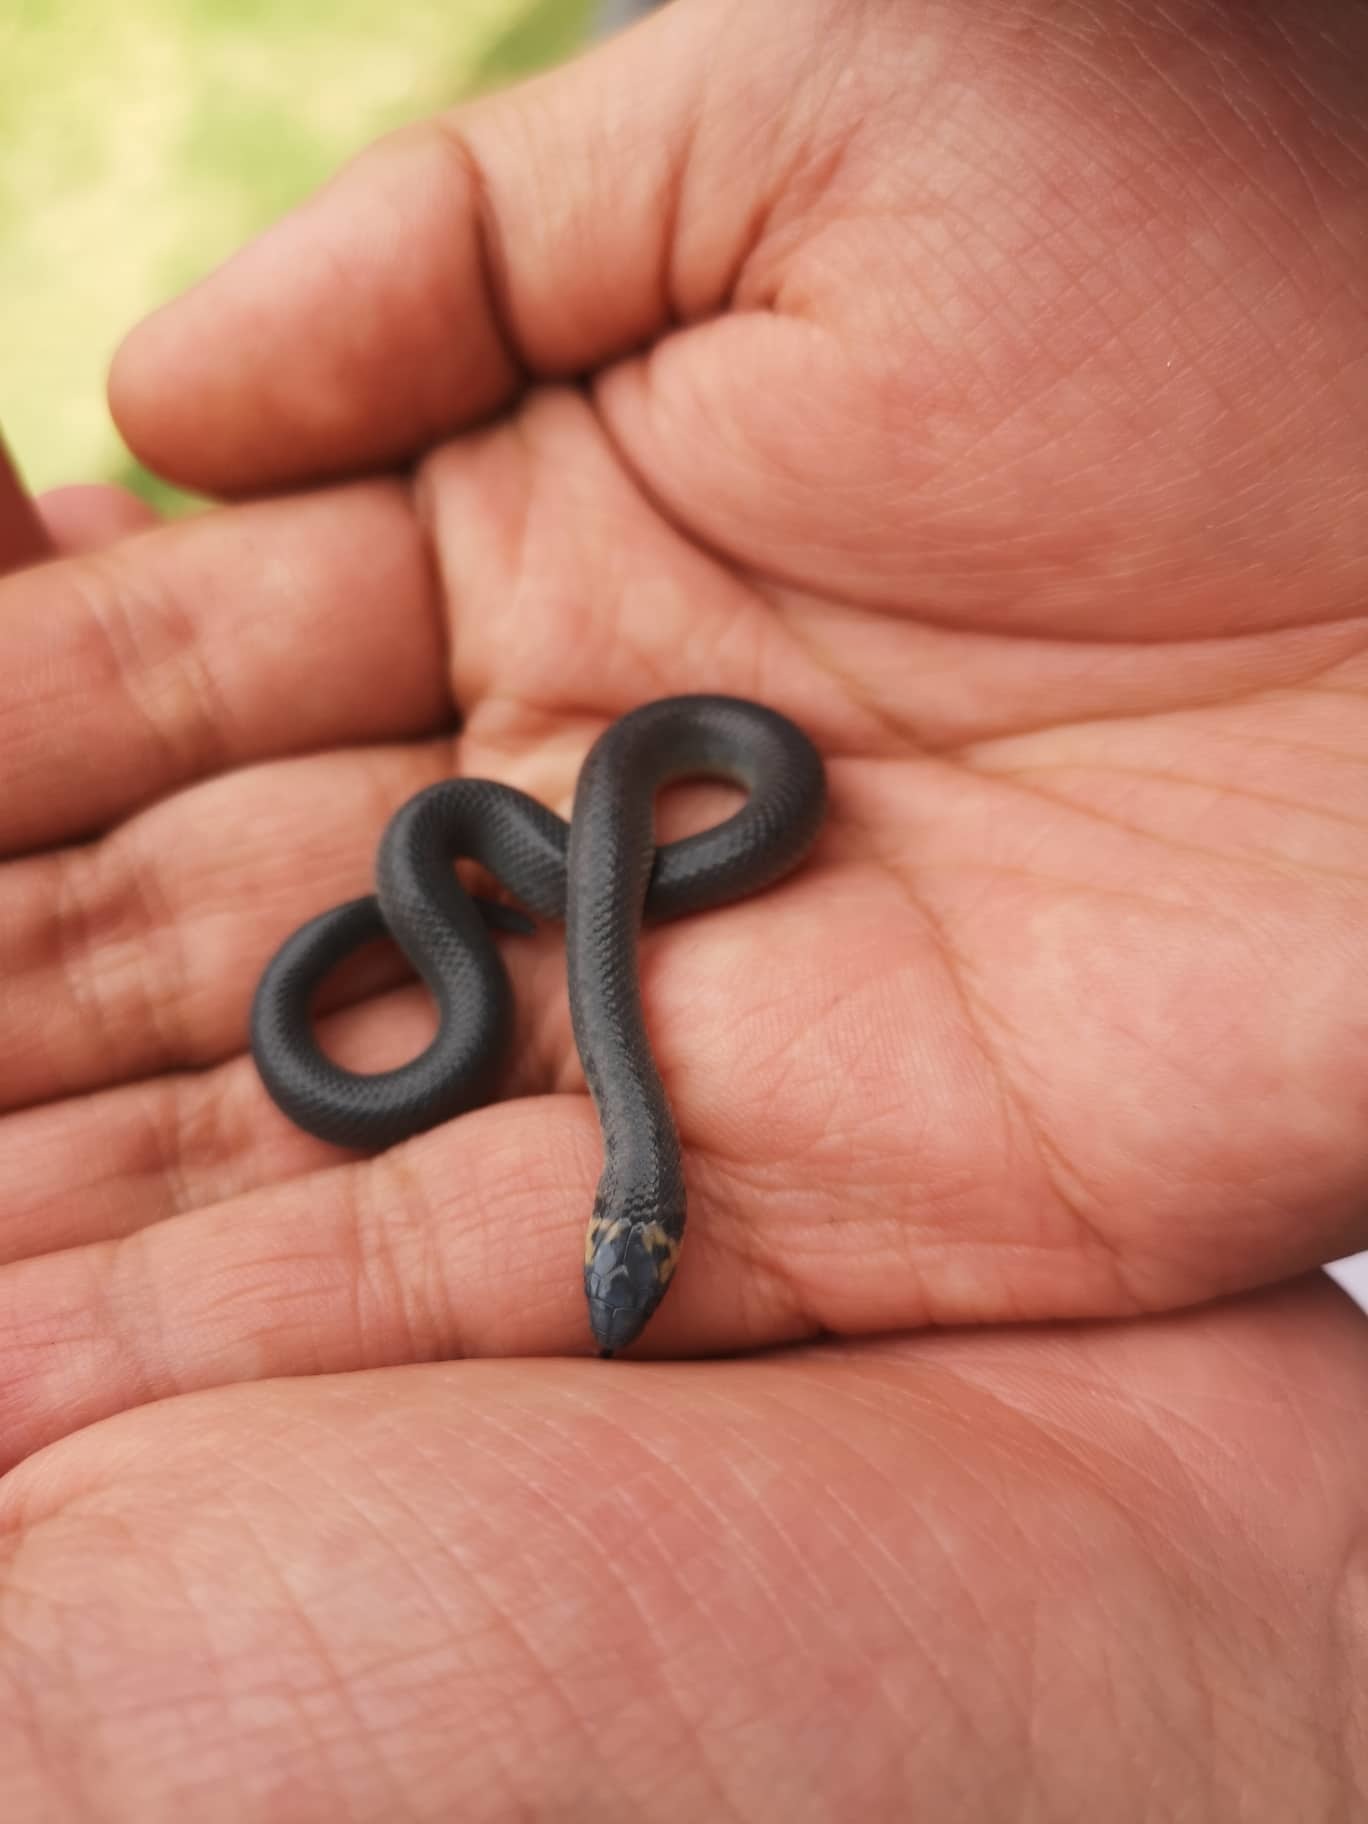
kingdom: Animalia
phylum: Chordata
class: Squamata
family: Colubridae
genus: Atractus
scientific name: Atractus crassicaudatus
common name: Thickhead ground snake
